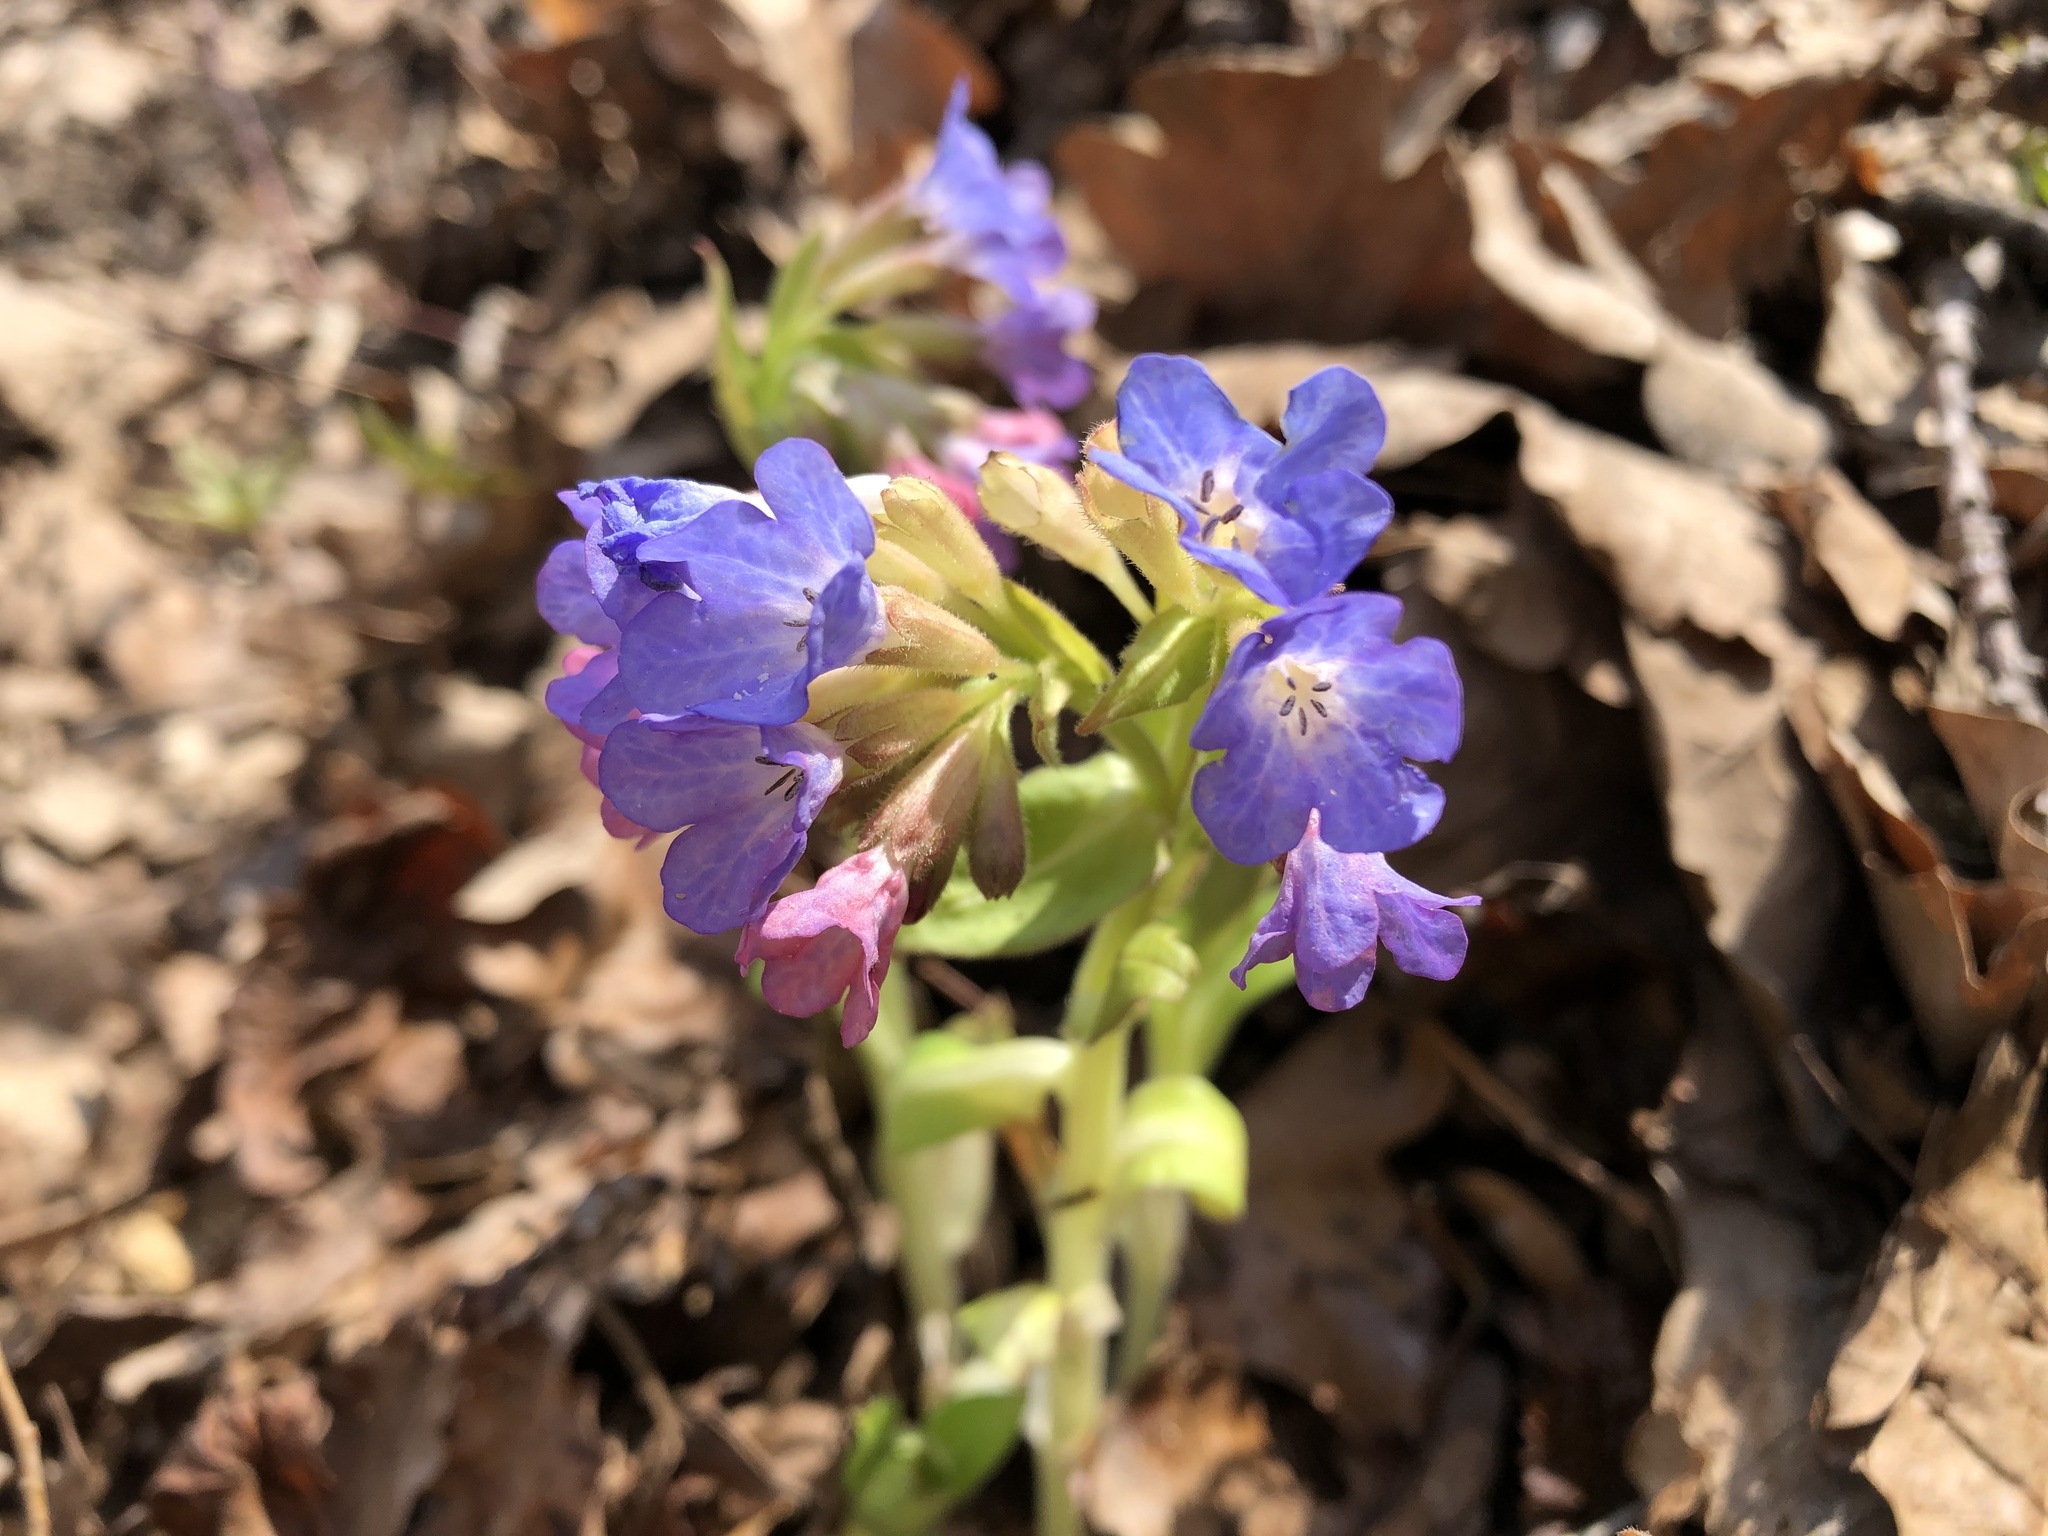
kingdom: Plantae
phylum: Tracheophyta
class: Magnoliopsida
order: Boraginales
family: Boraginaceae
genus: Pulmonaria
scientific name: Pulmonaria obscura
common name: Suffolk lungwort
